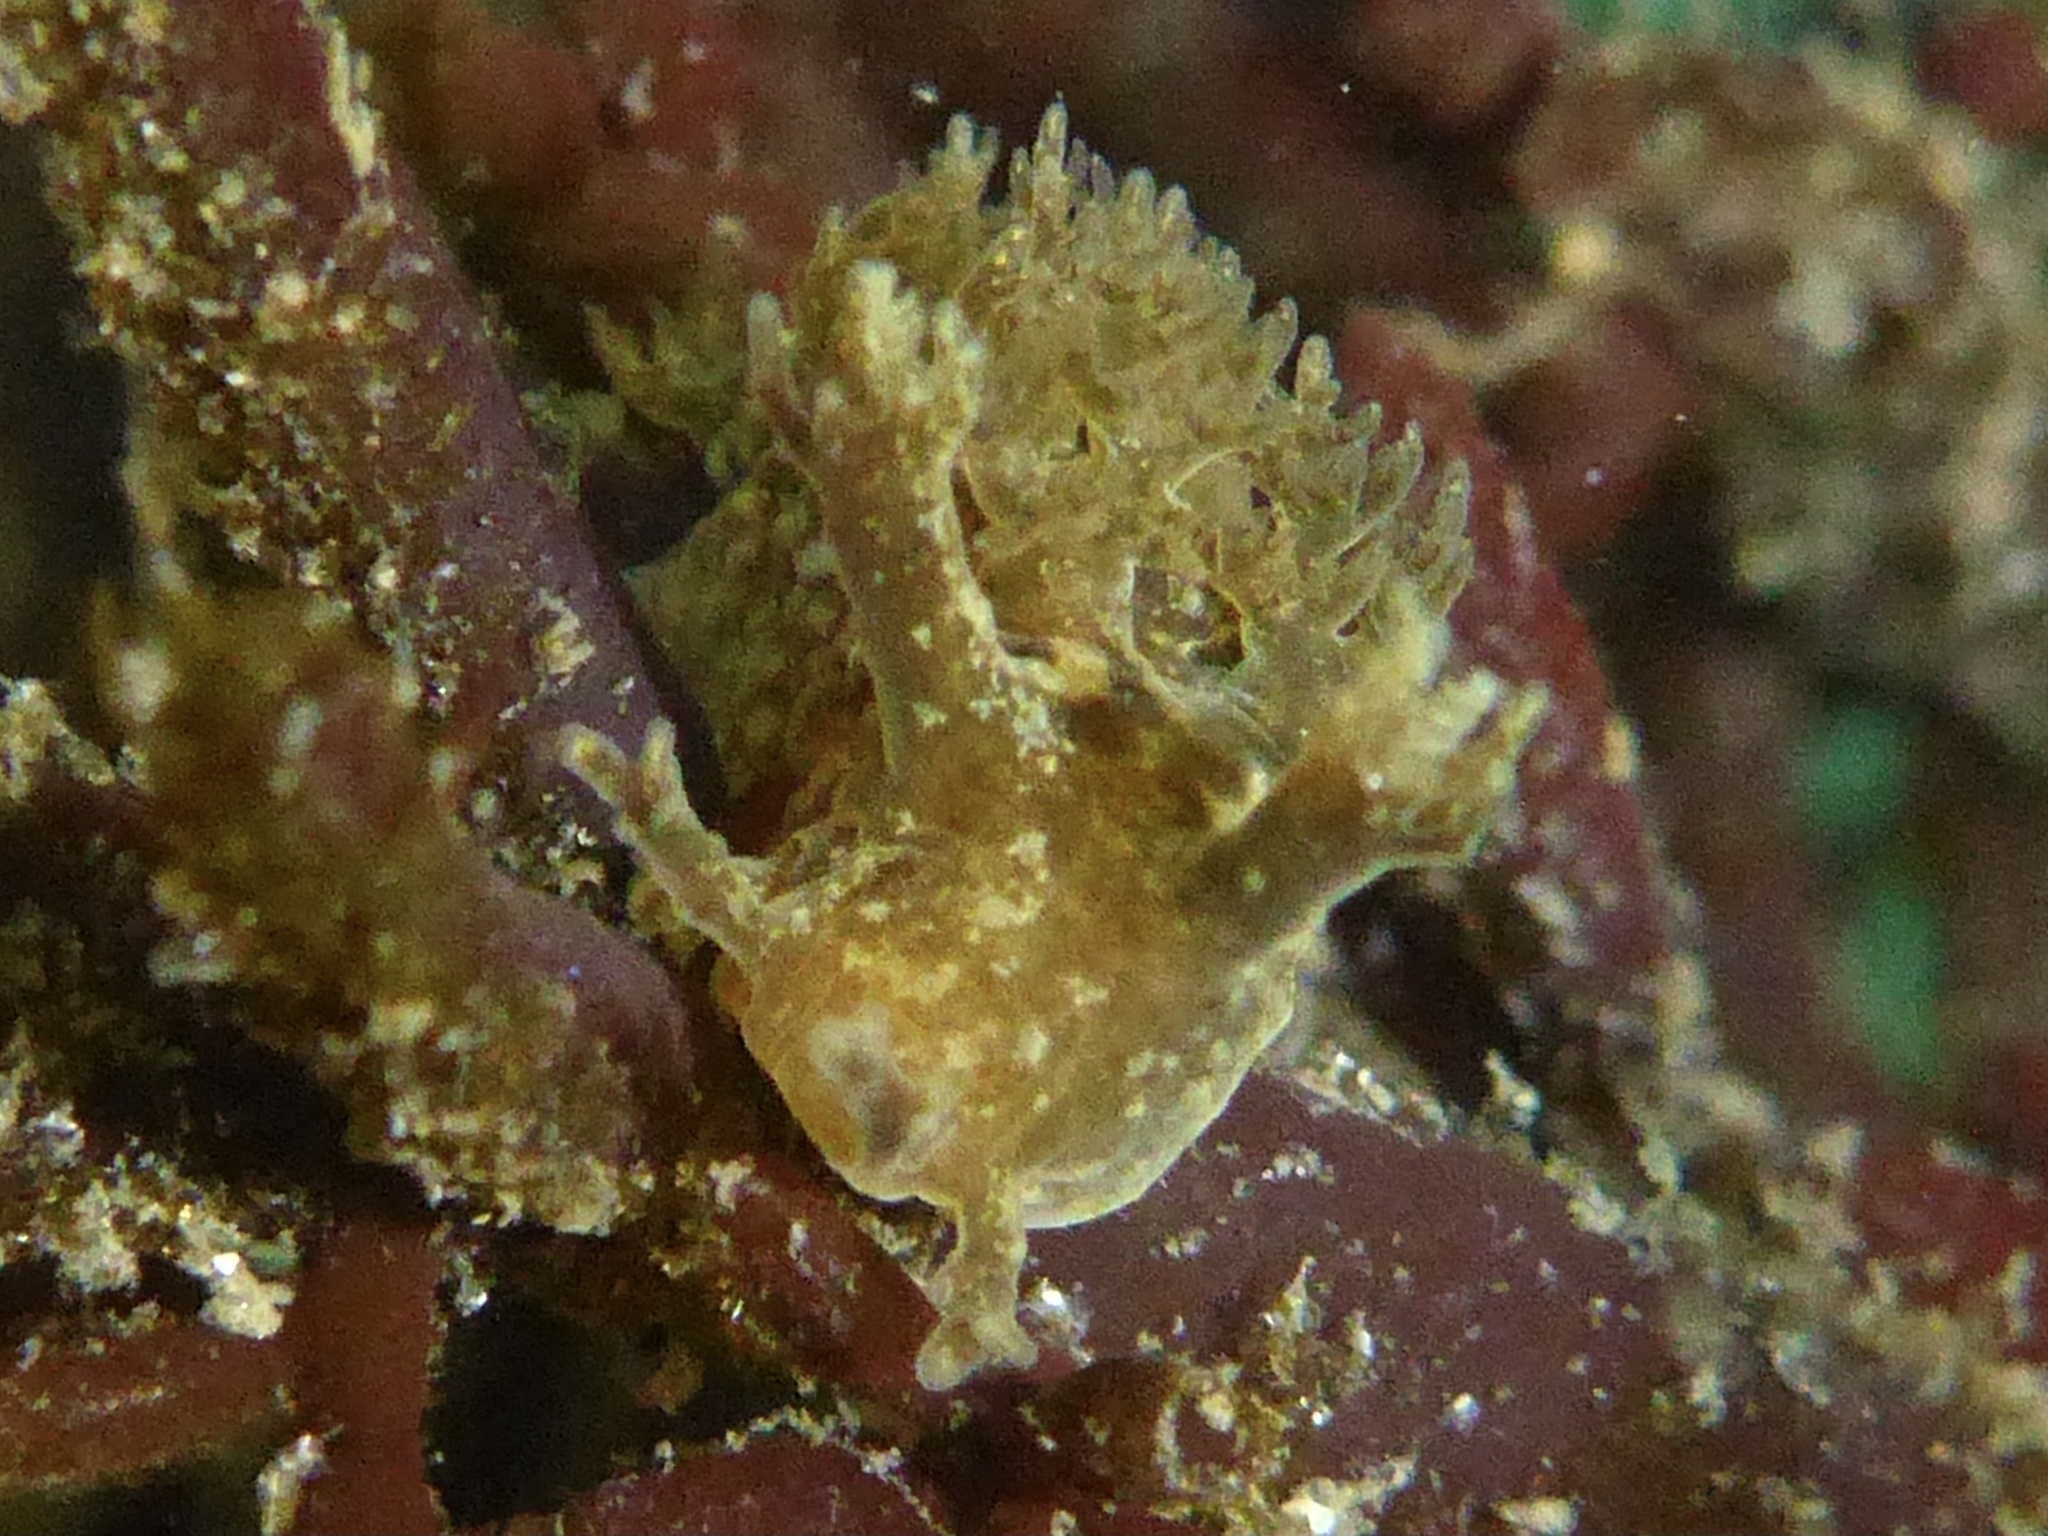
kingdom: Animalia
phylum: Mollusca
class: Gastropoda
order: Nudibranchia
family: Dendronotidae
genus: Dendronotus
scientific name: Dendronotus subramosus
